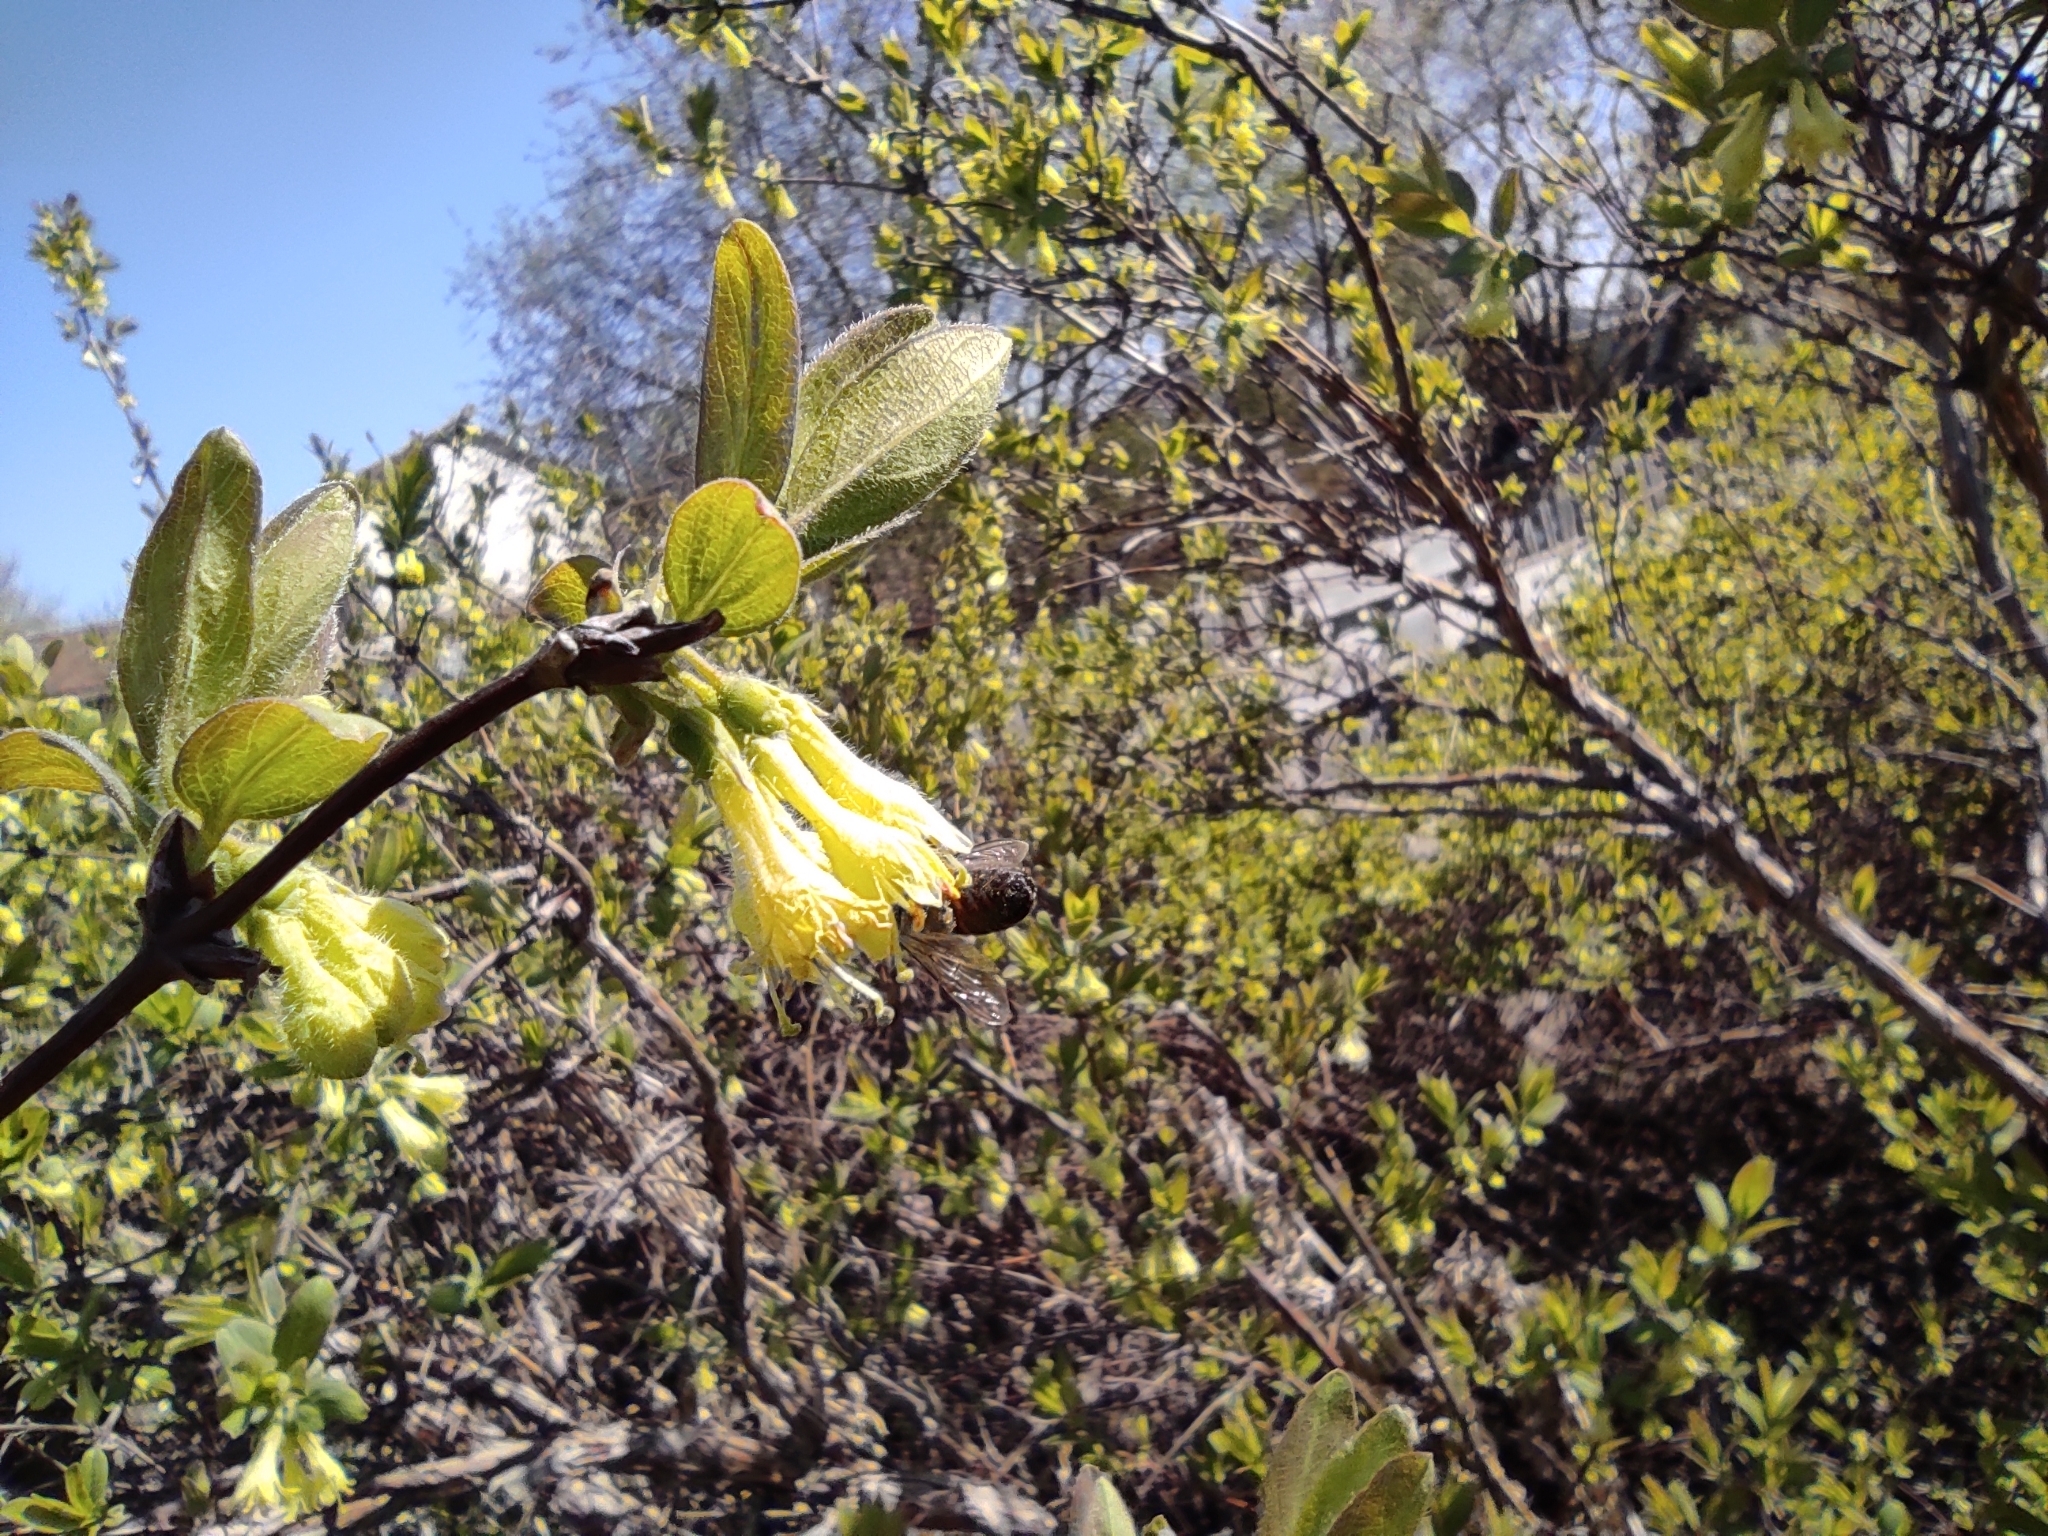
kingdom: Animalia
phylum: Arthropoda
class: Insecta
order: Hymenoptera
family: Apidae
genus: Apis
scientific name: Apis mellifera
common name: Honey bee
